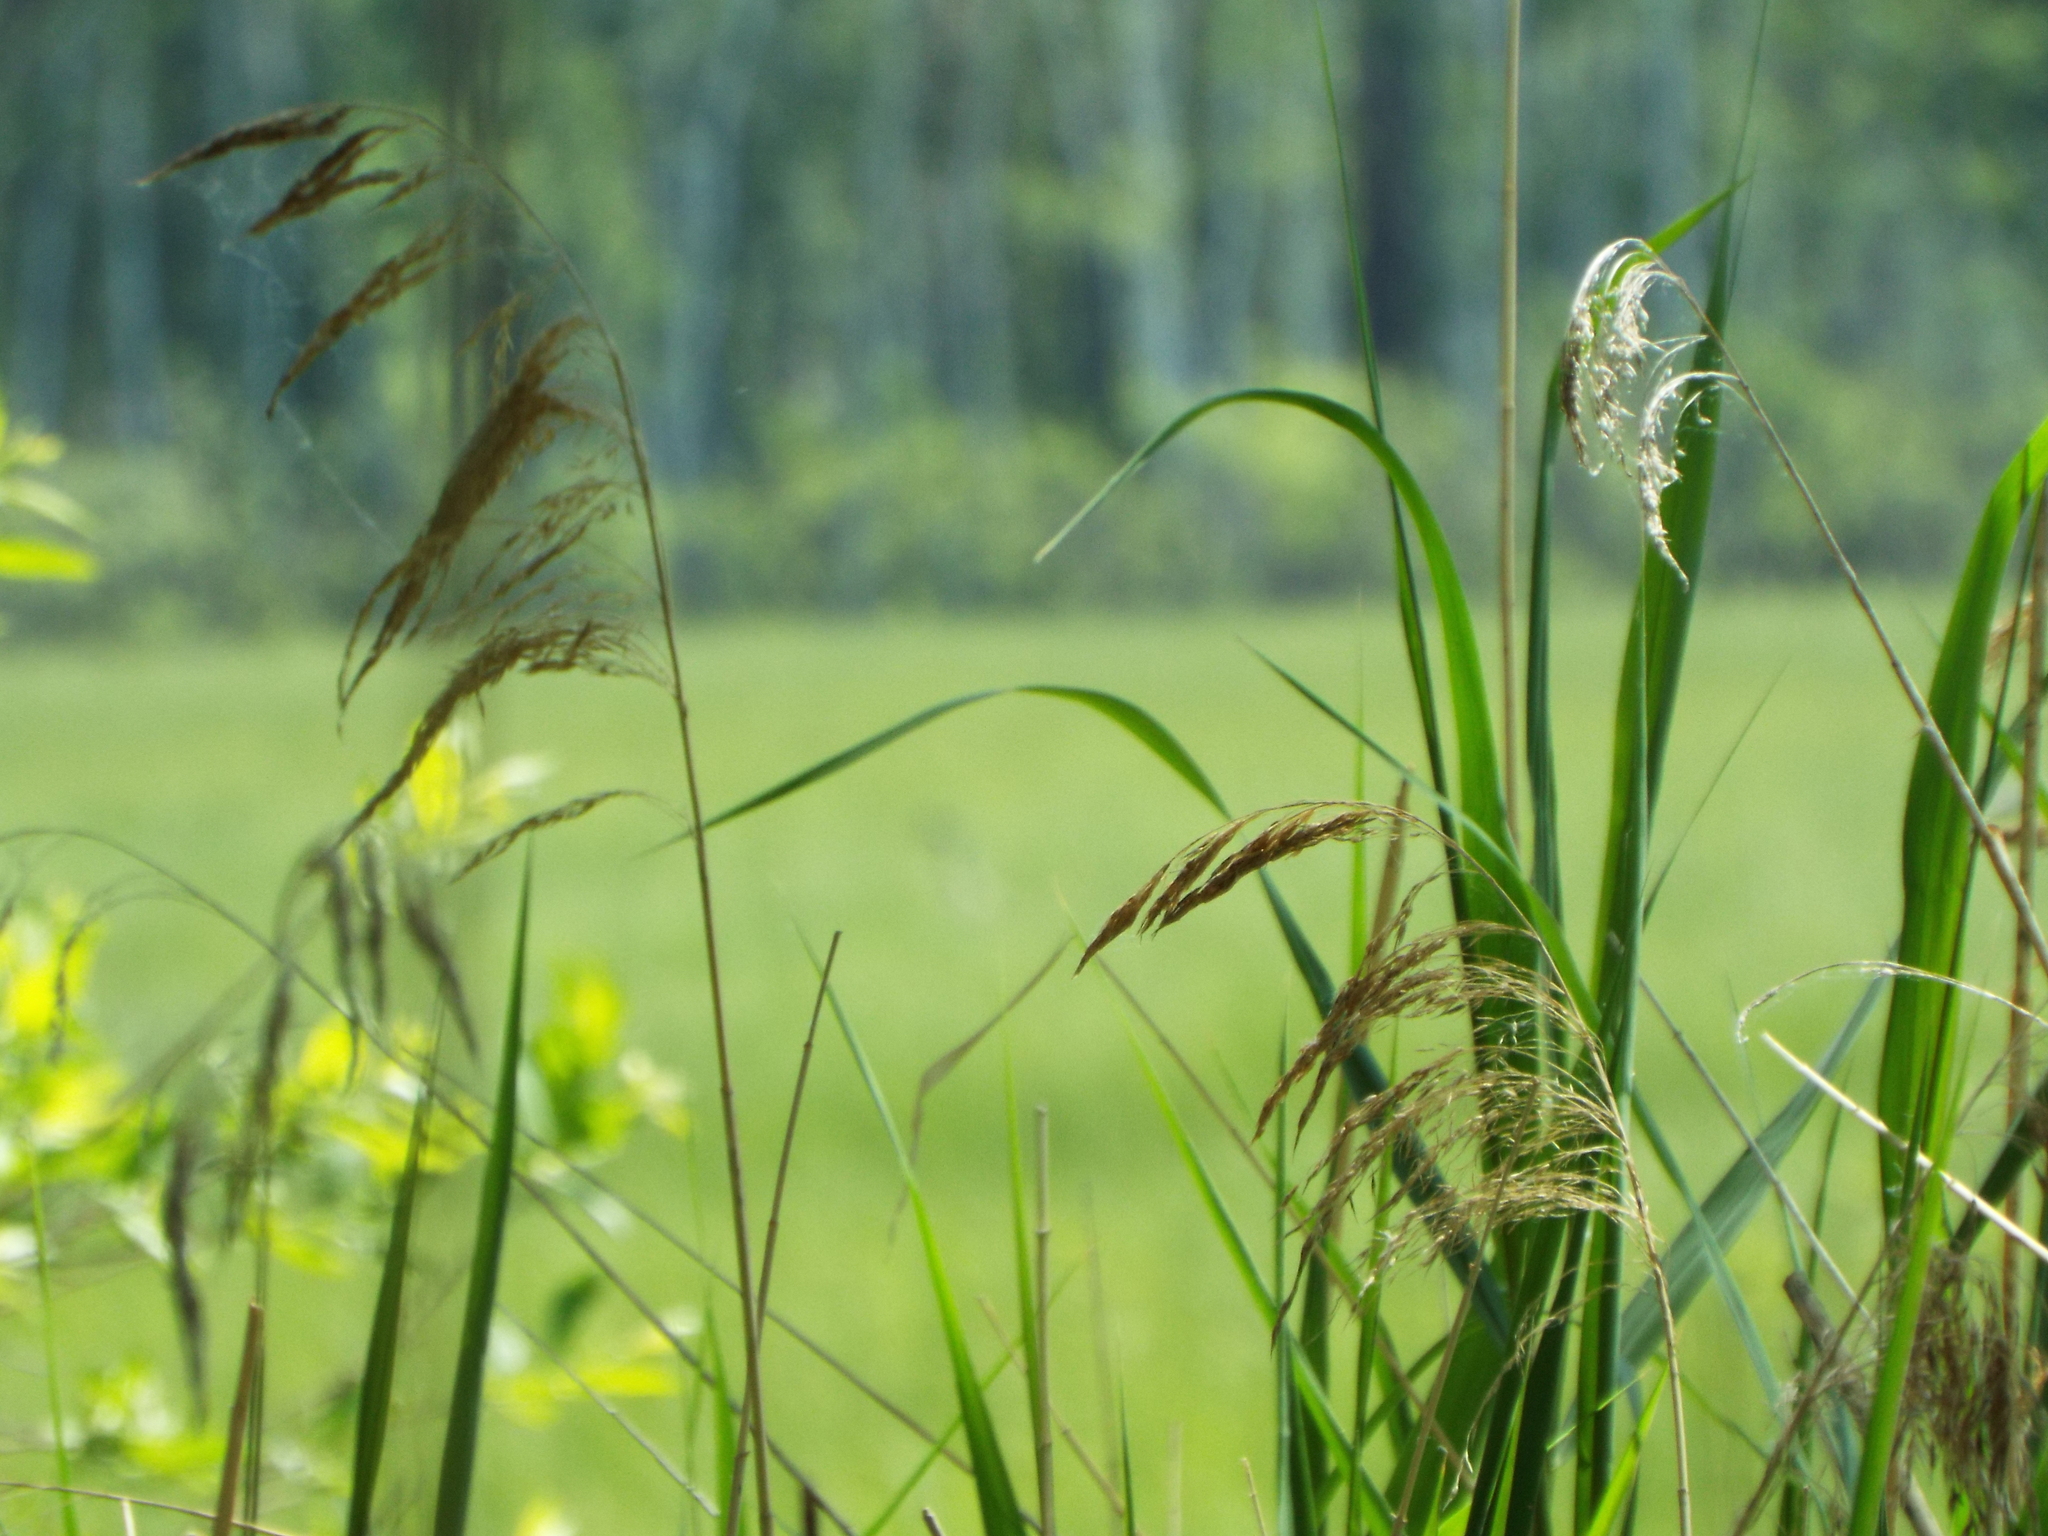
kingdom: Plantae
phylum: Tracheophyta
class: Liliopsida
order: Poales
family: Poaceae
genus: Phragmites
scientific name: Phragmites australis
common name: Common reed
